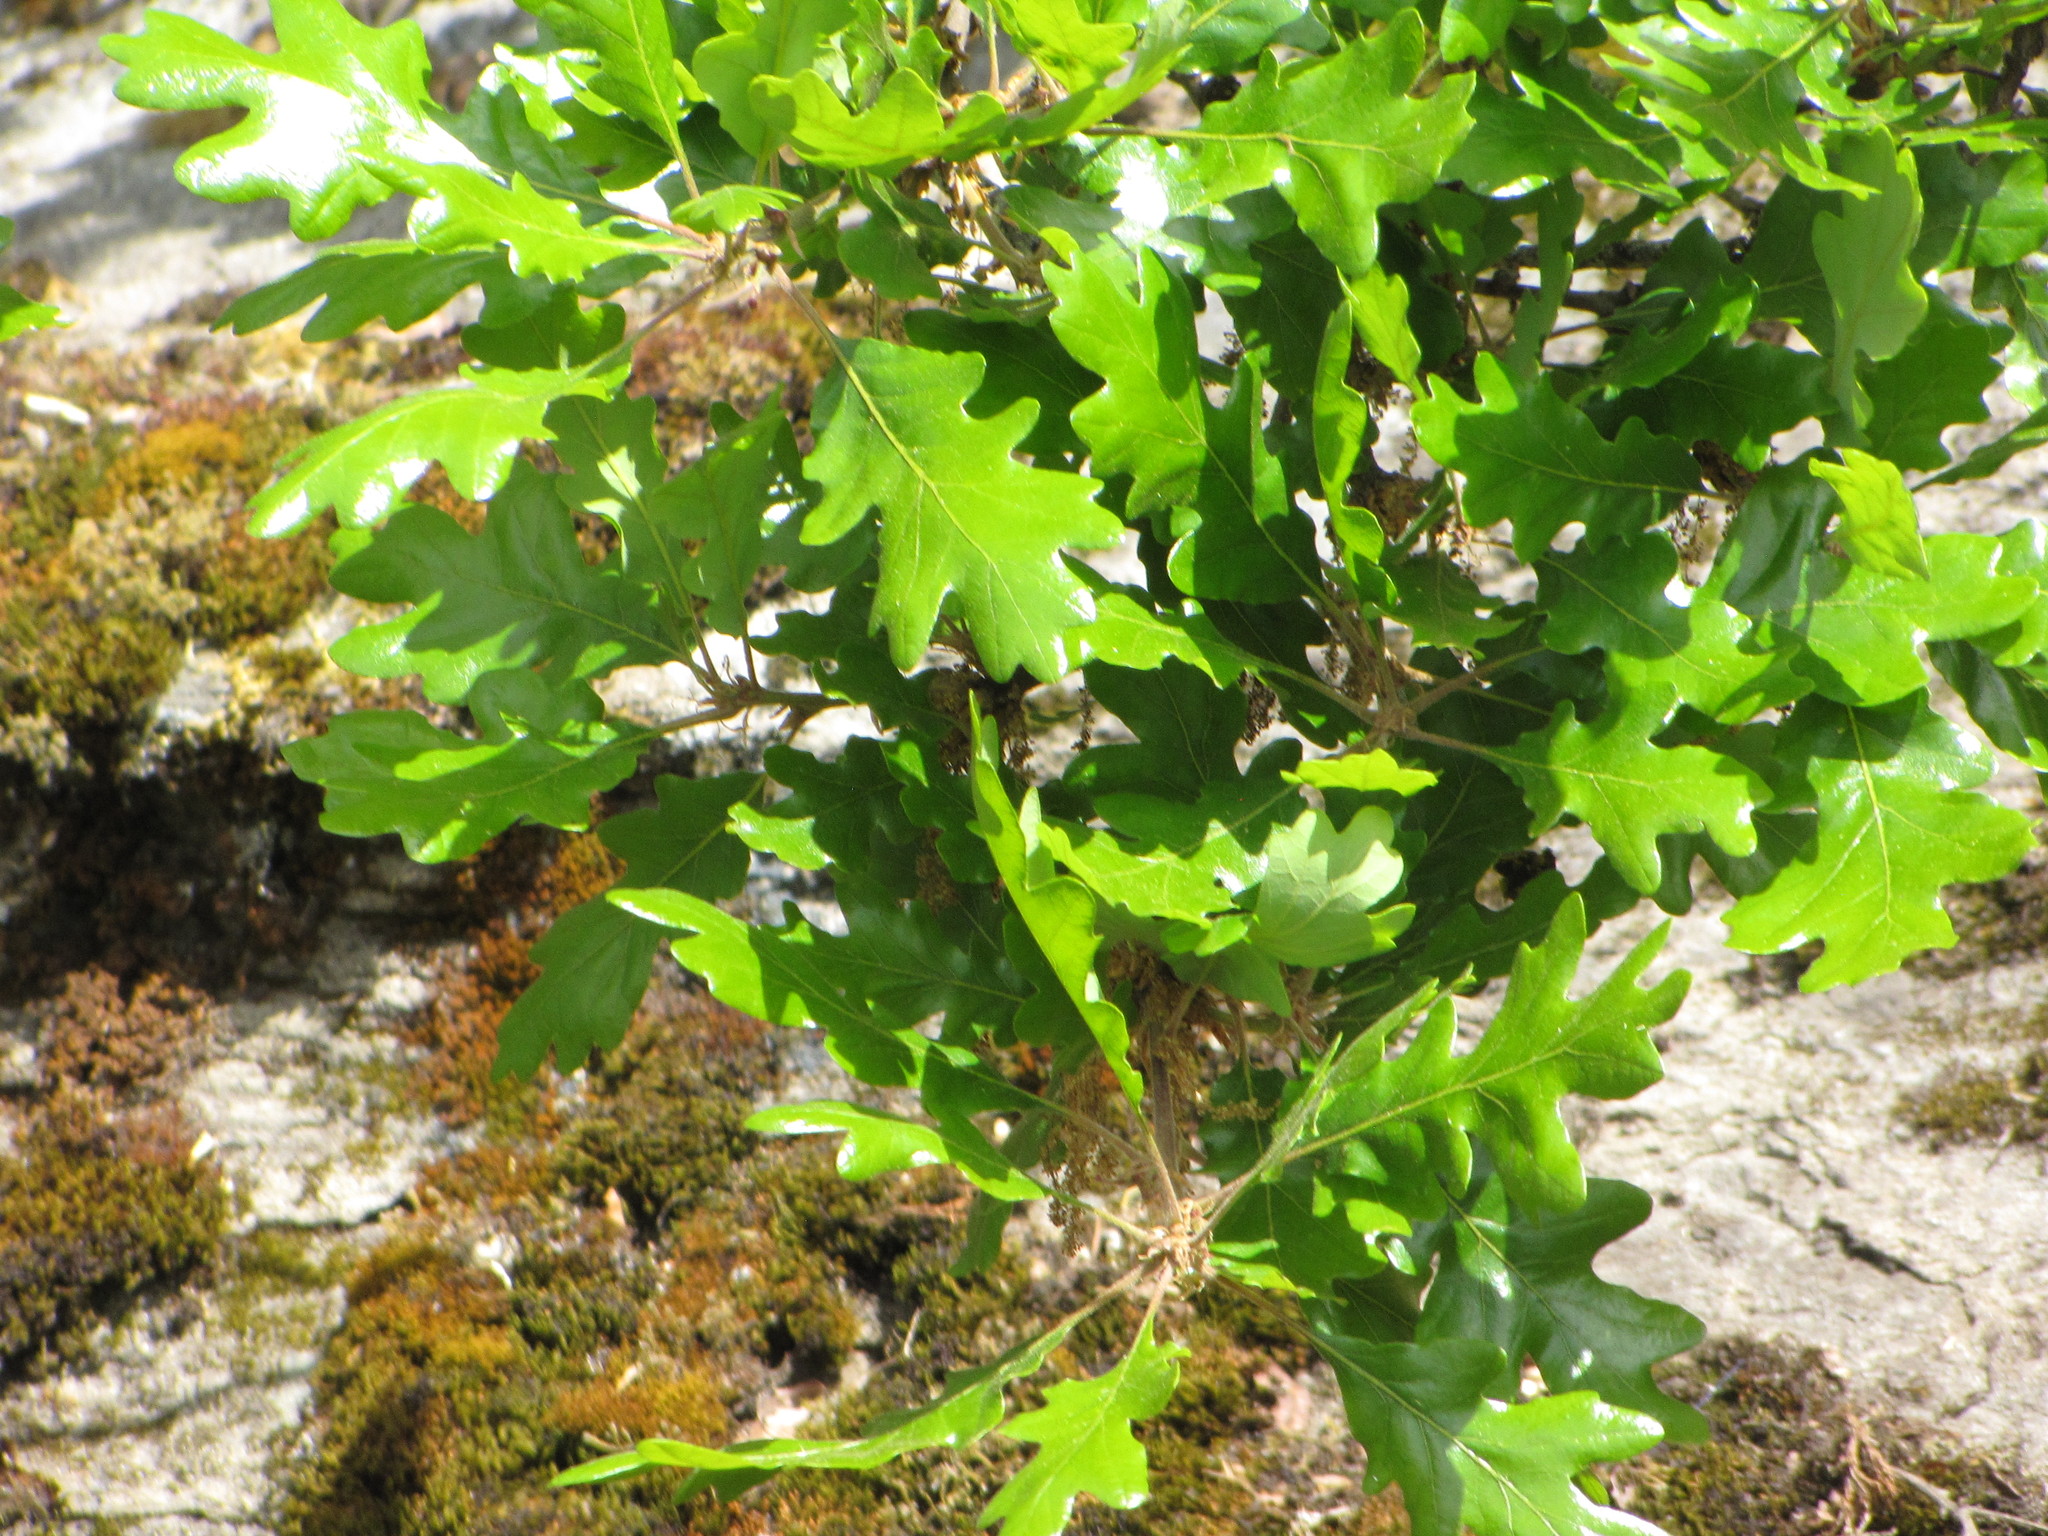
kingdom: Plantae
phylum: Tracheophyta
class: Magnoliopsida
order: Fagales
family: Fagaceae
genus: Quercus
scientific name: Quercus garryana
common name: Garry oak
